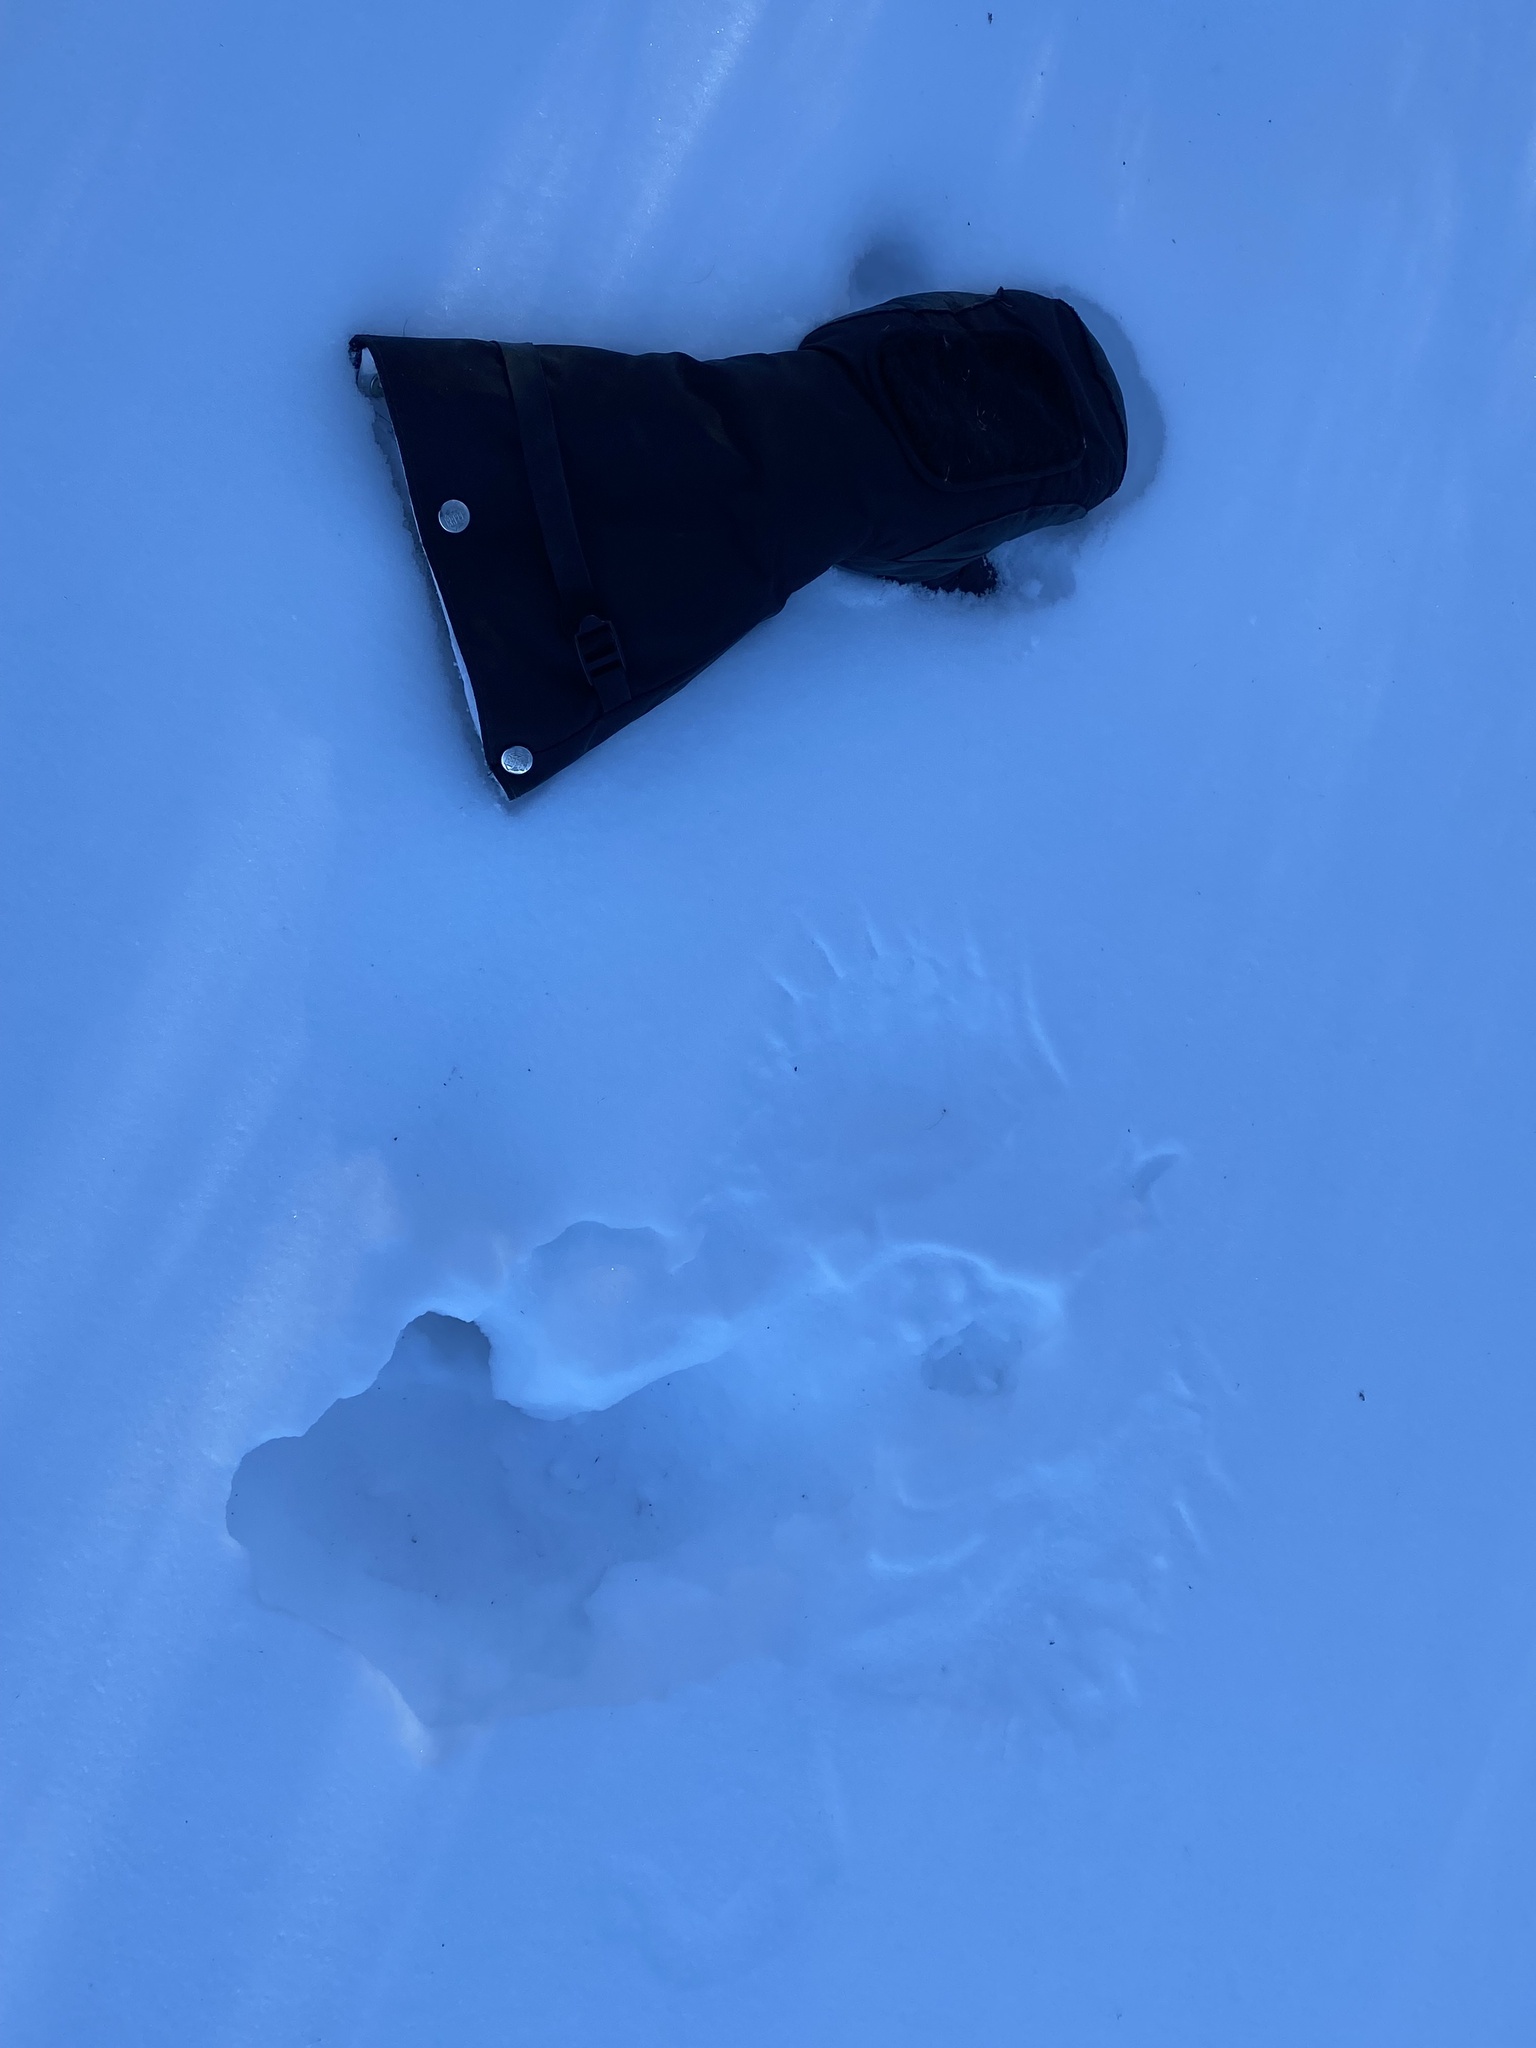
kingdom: Animalia
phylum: Chordata
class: Aves
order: Galliformes
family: Phasianidae
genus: Bonasa
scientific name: Bonasa umbellus
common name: Ruffed grouse
